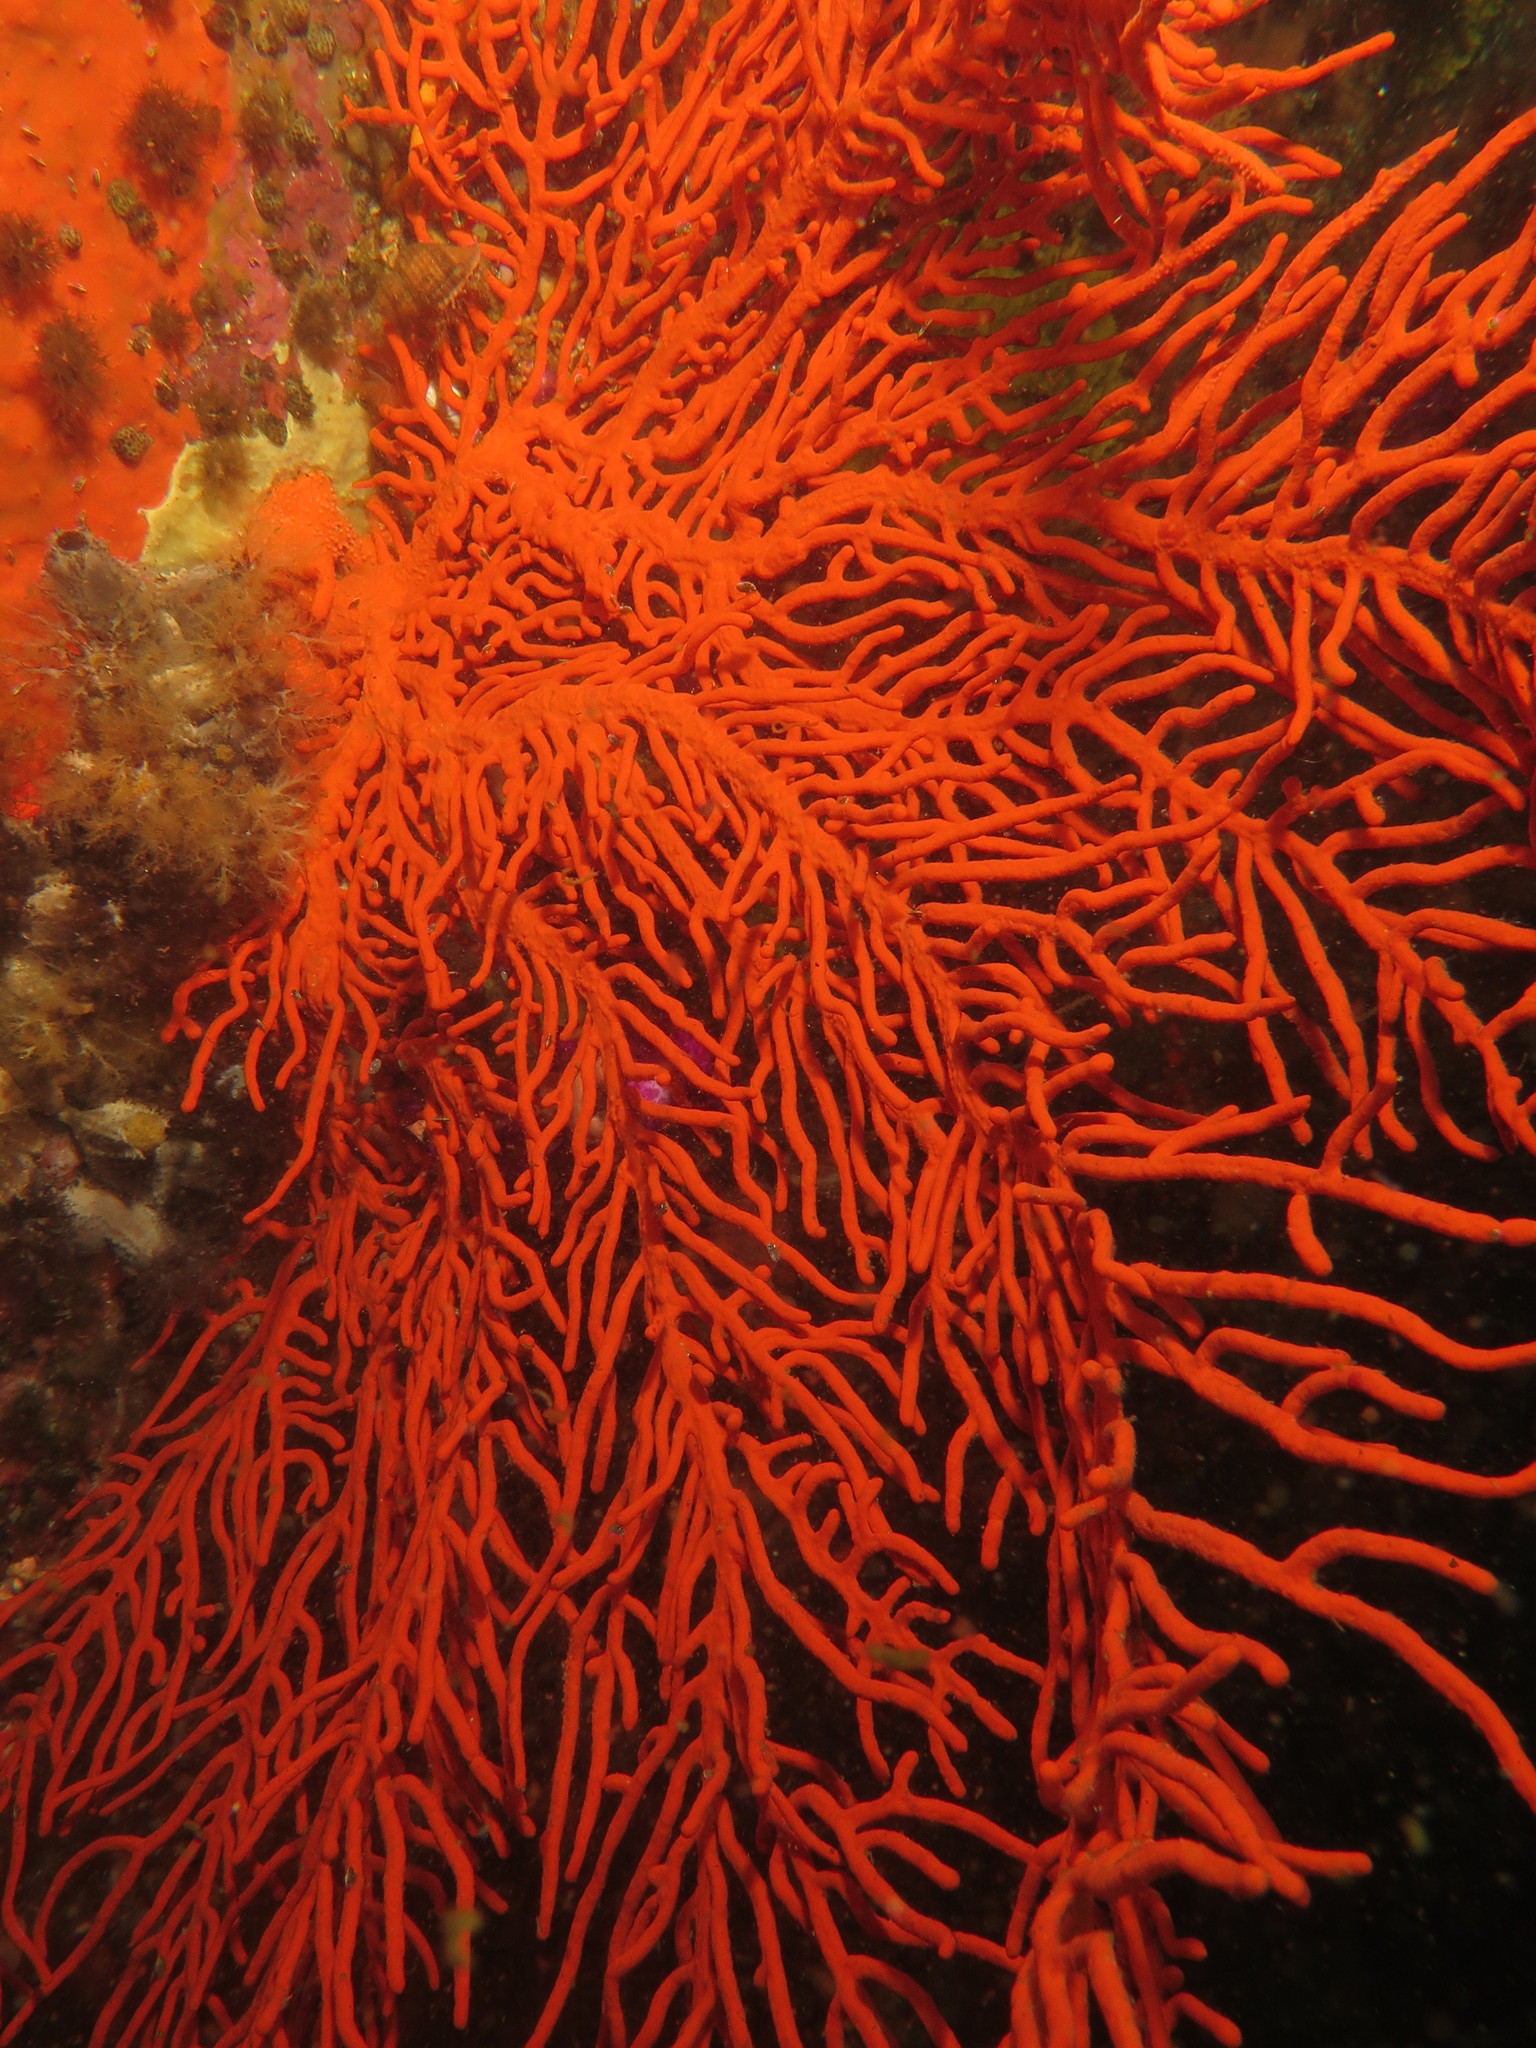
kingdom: Animalia
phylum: Cnidaria
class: Anthozoa
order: Malacalcyonacea
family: Gorgoniidae
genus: Leptogorgia
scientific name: Leptogorgia palma
